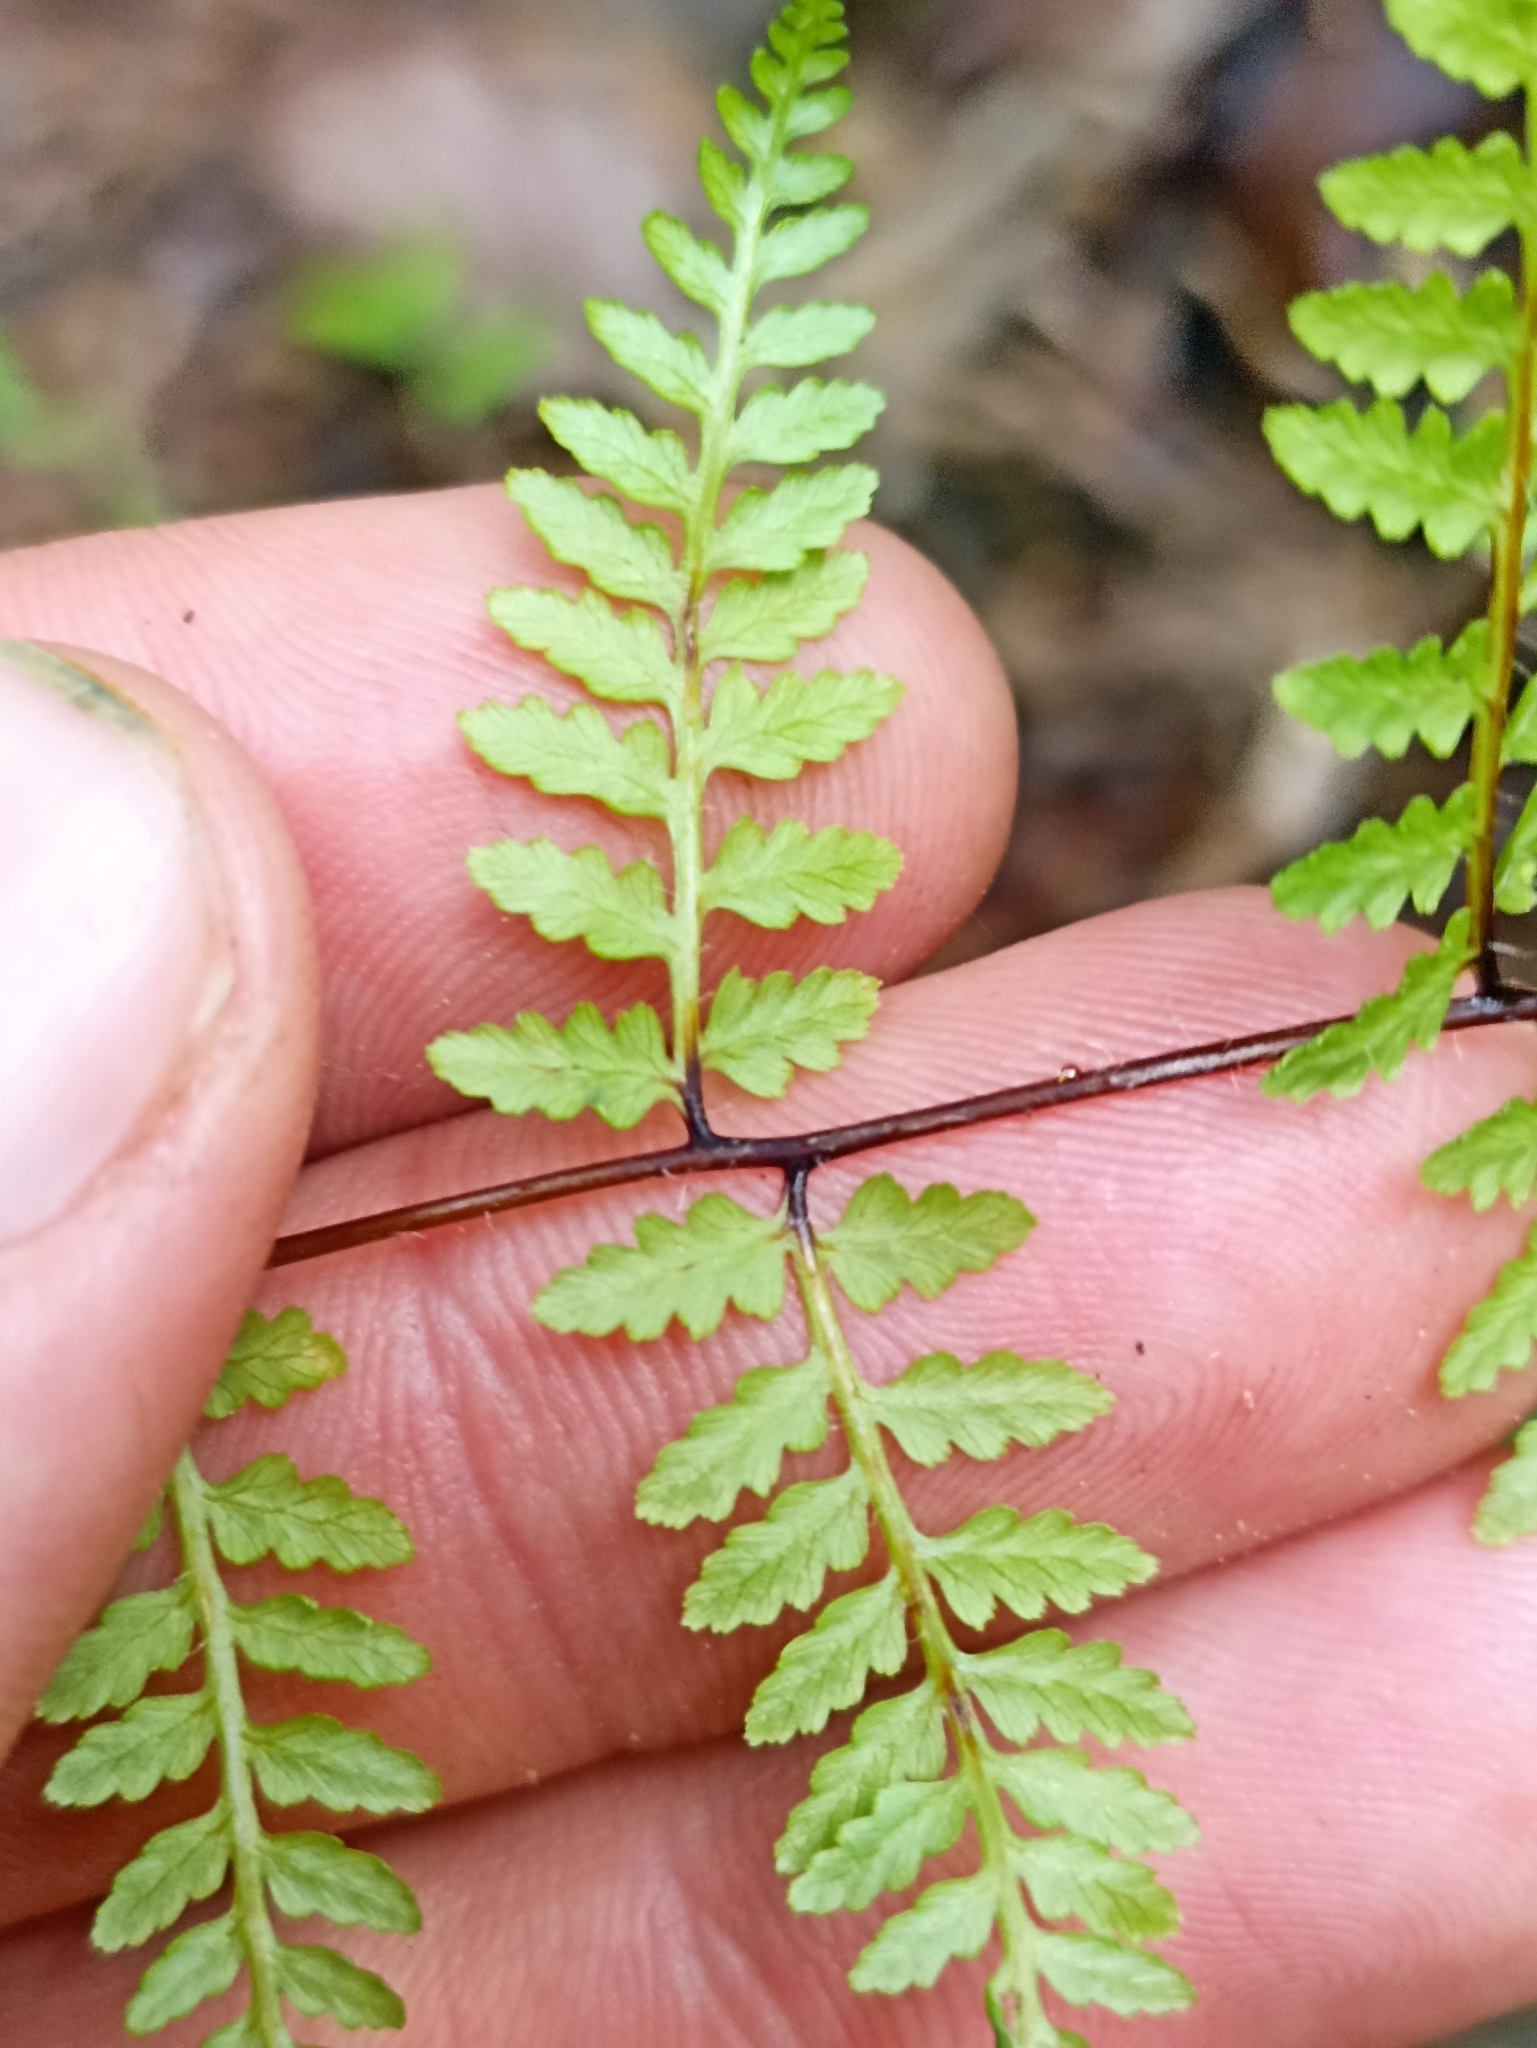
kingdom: Plantae
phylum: Tracheophyta
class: Polypodiopsida
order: Polypodiales
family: Dennstaedtiaceae
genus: Hiya
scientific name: Hiya distans
